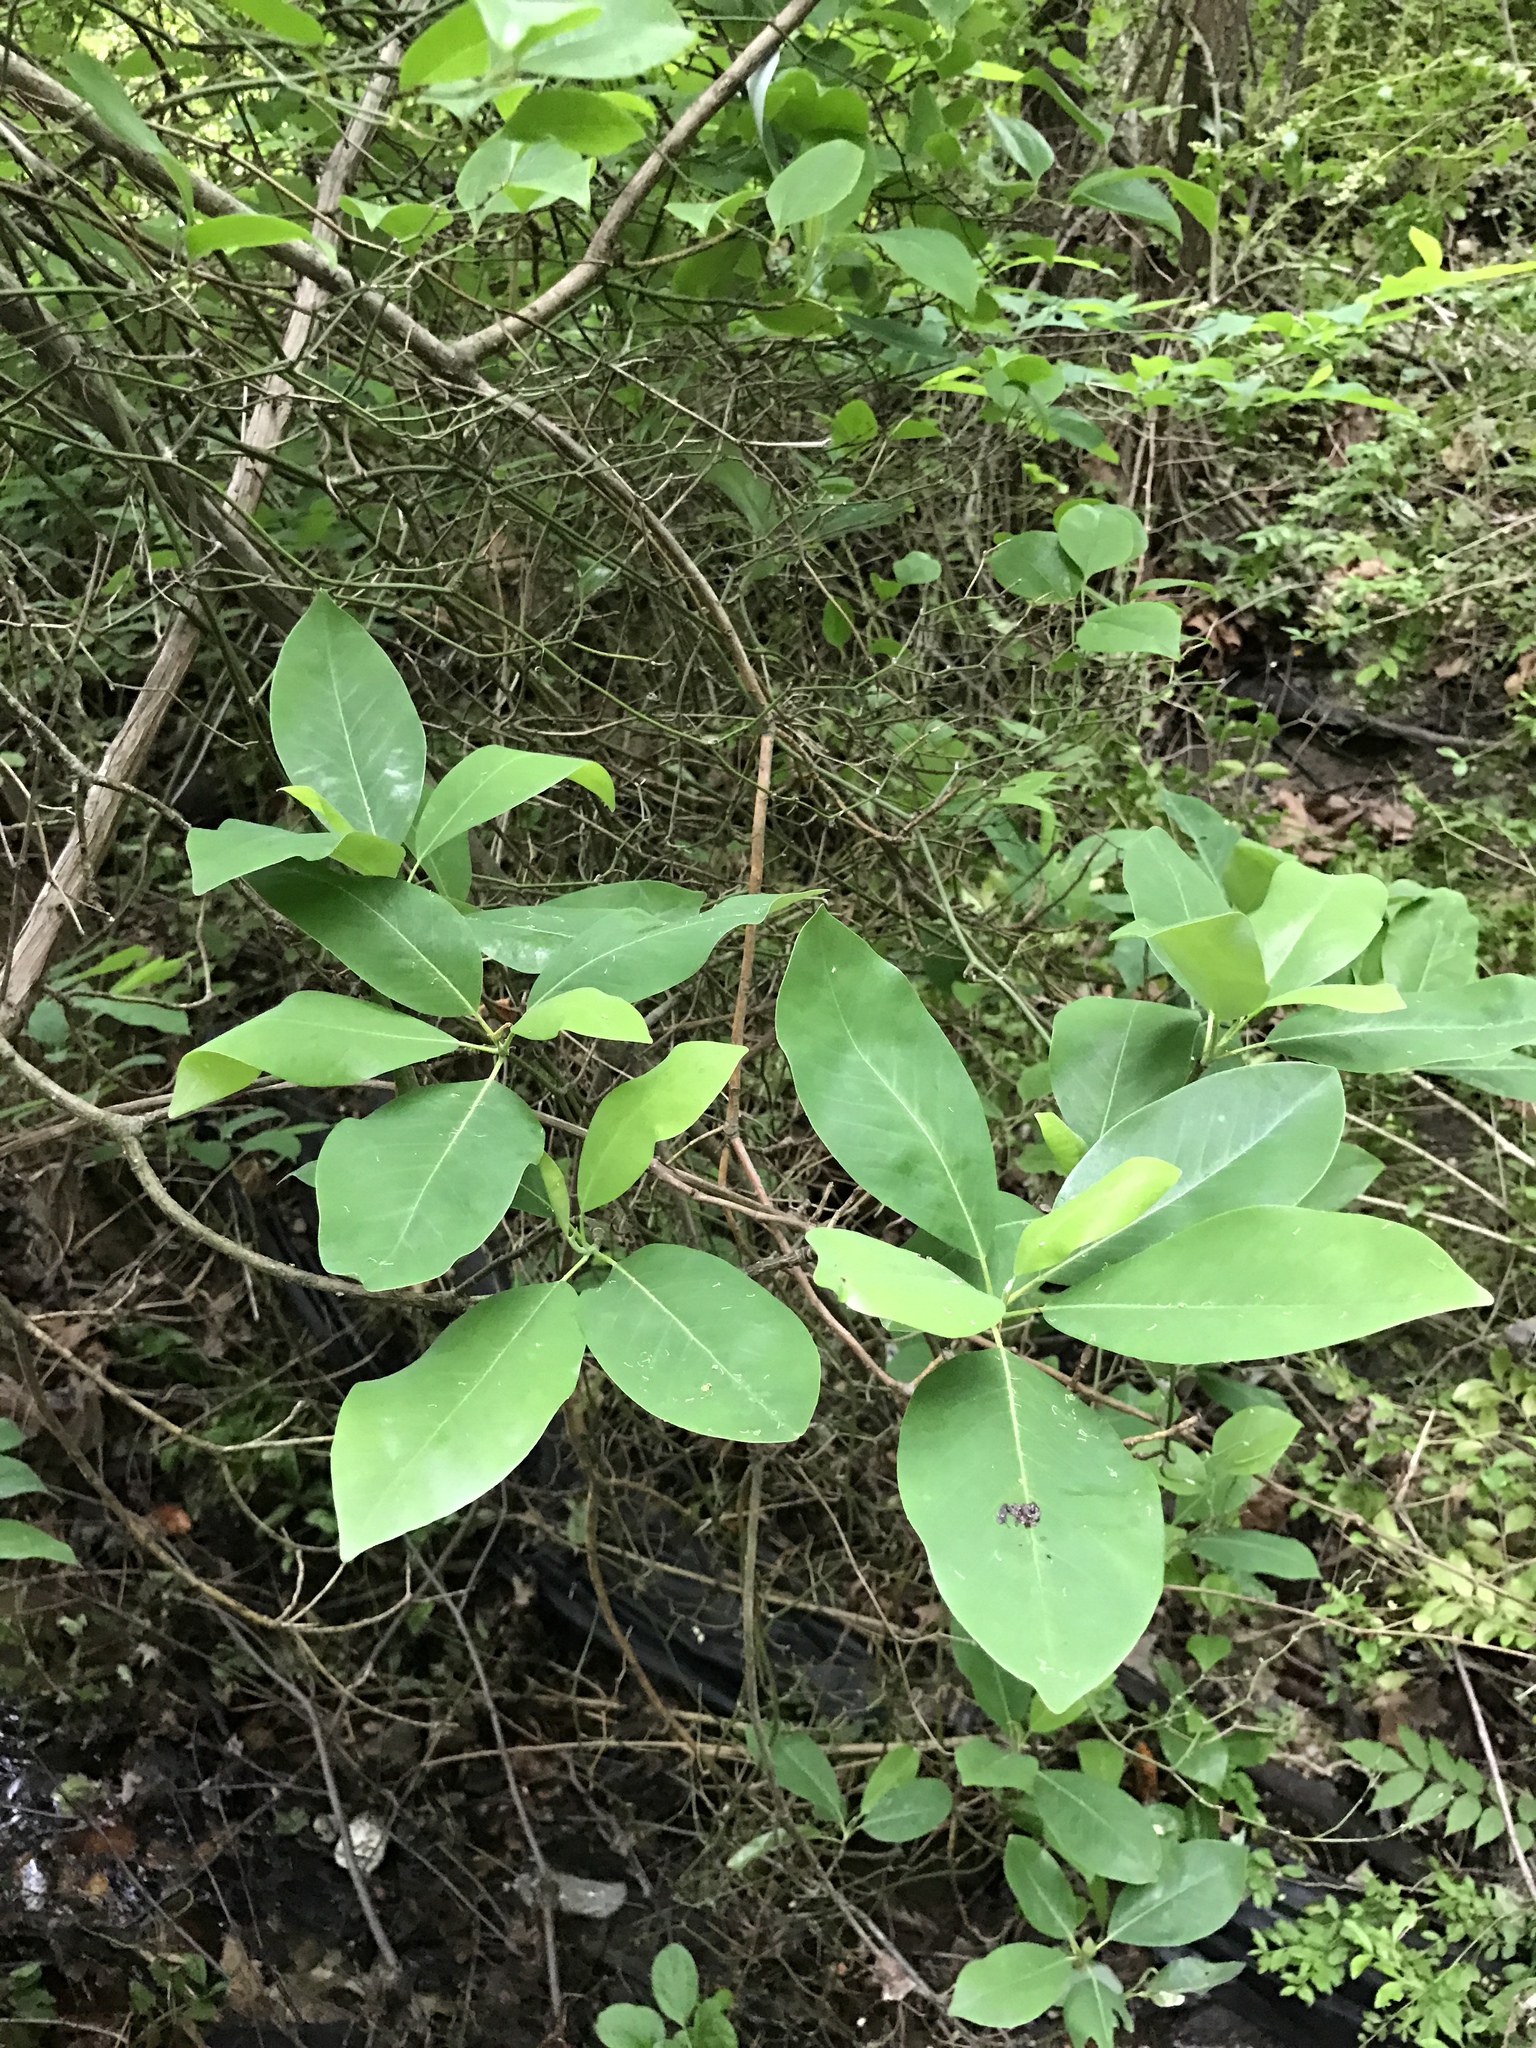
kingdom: Plantae
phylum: Tracheophyta
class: Magnoliopsida
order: Magnoliales
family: Magnoliaceae
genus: Magnolia
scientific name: Magnolia virginiana
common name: Swamp bay
